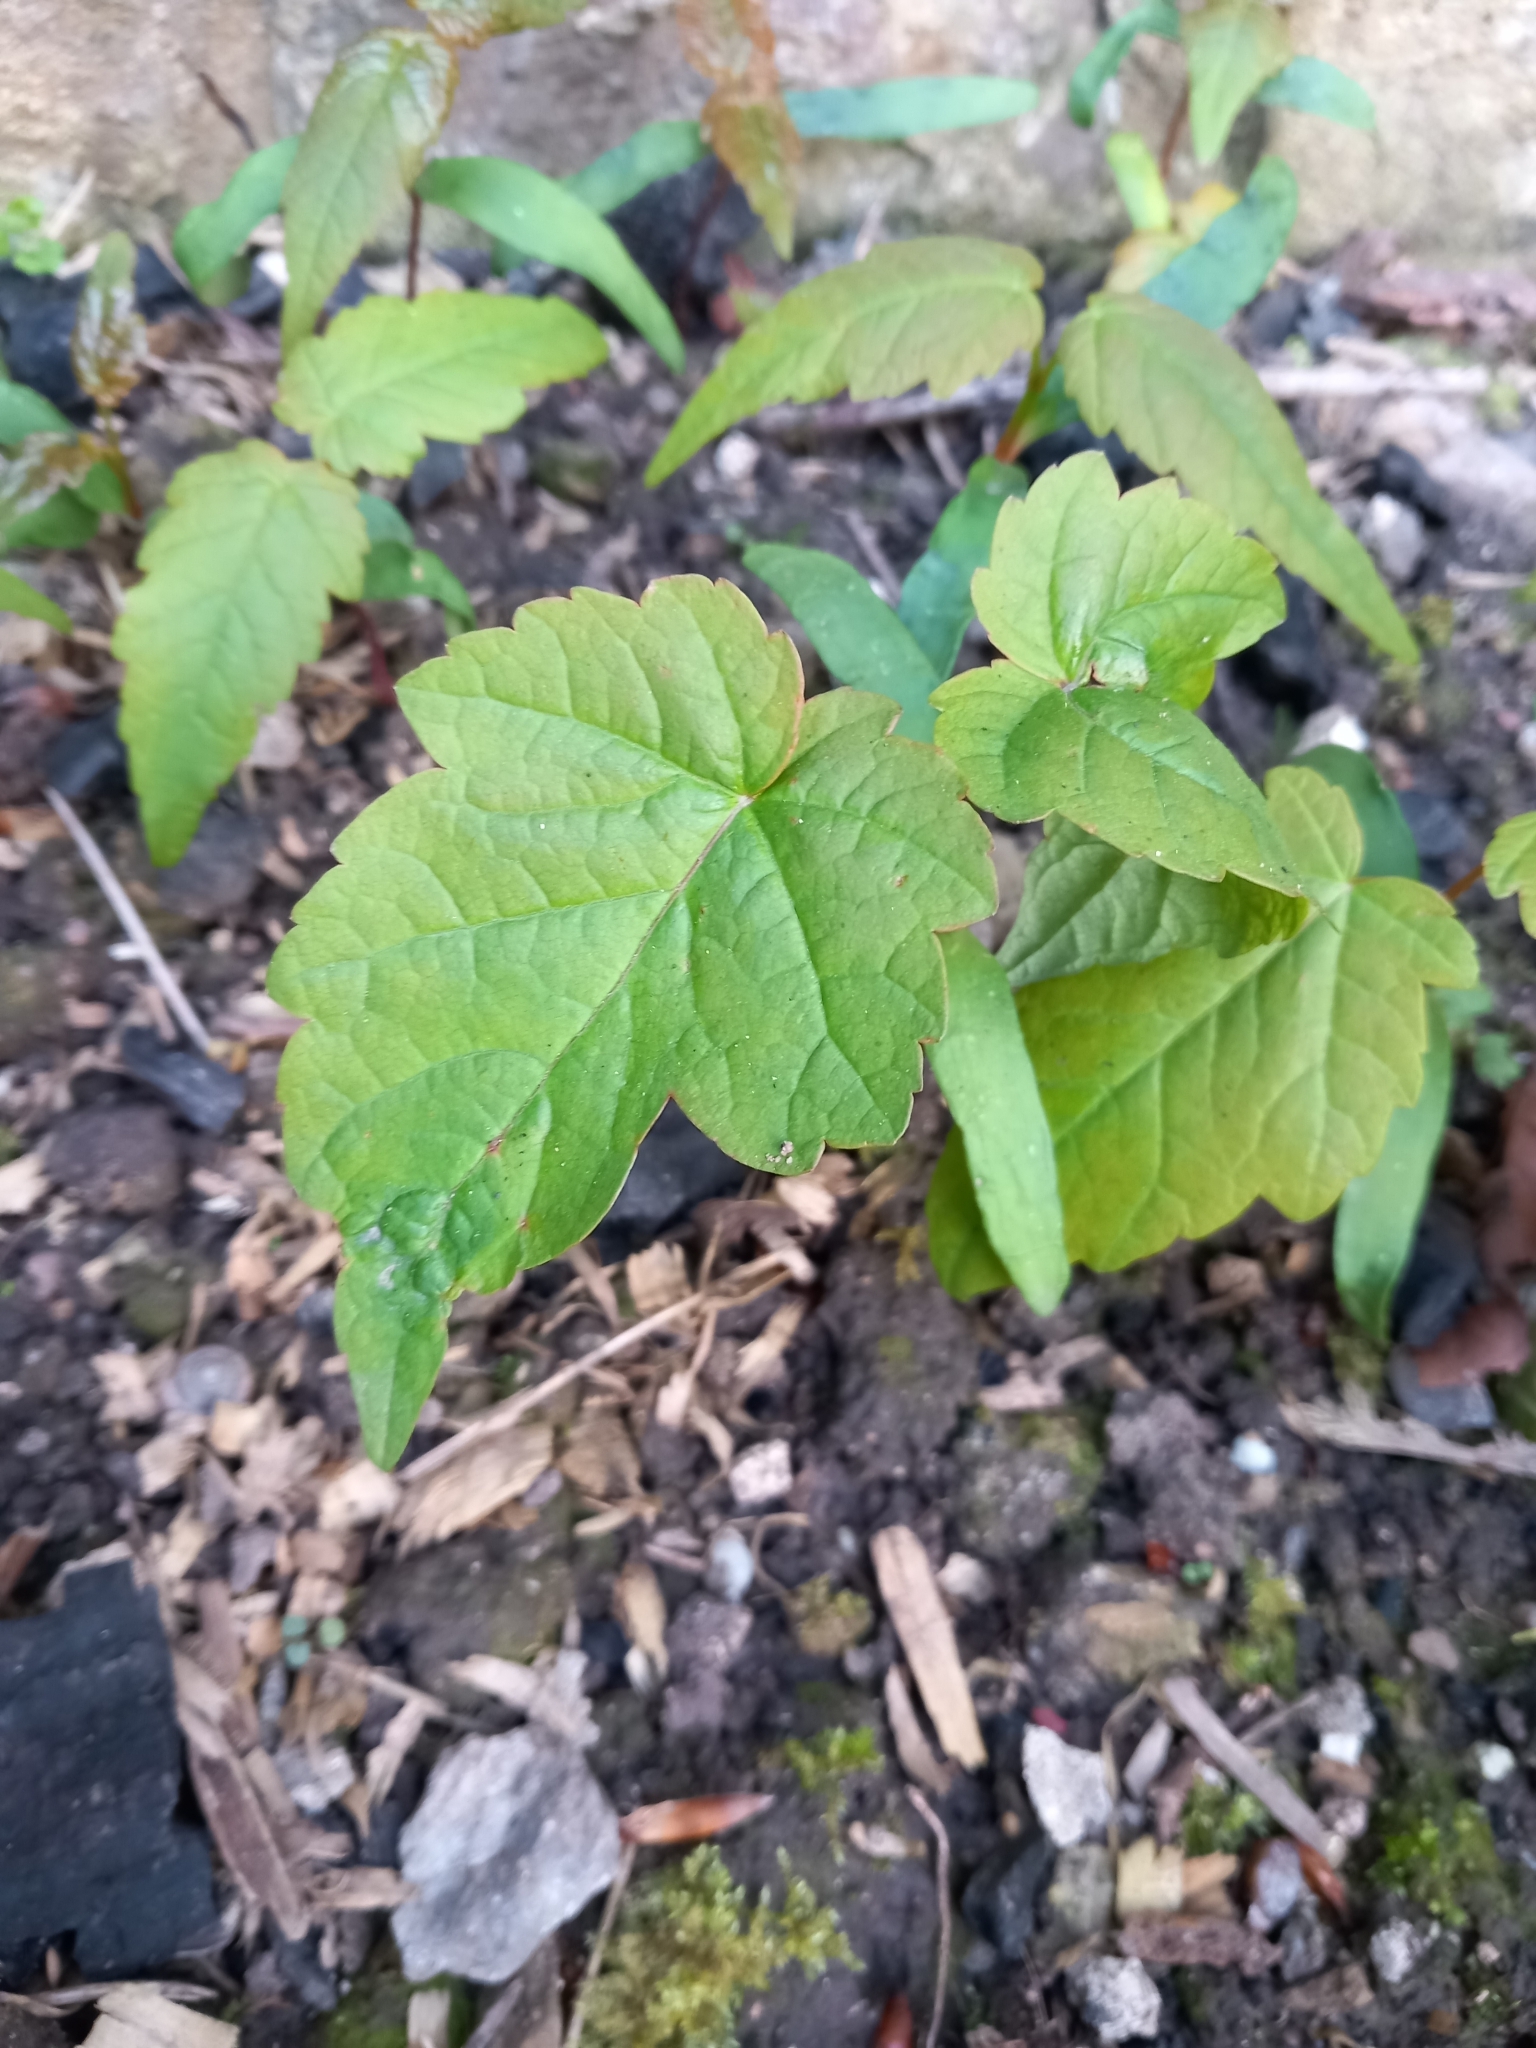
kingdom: Plantae
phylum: Tracheophyta
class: Magnoliopsida
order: Sapindales
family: Sapindaceae
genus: Acer
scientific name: Acer pseudoplatanus
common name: Sycamore
